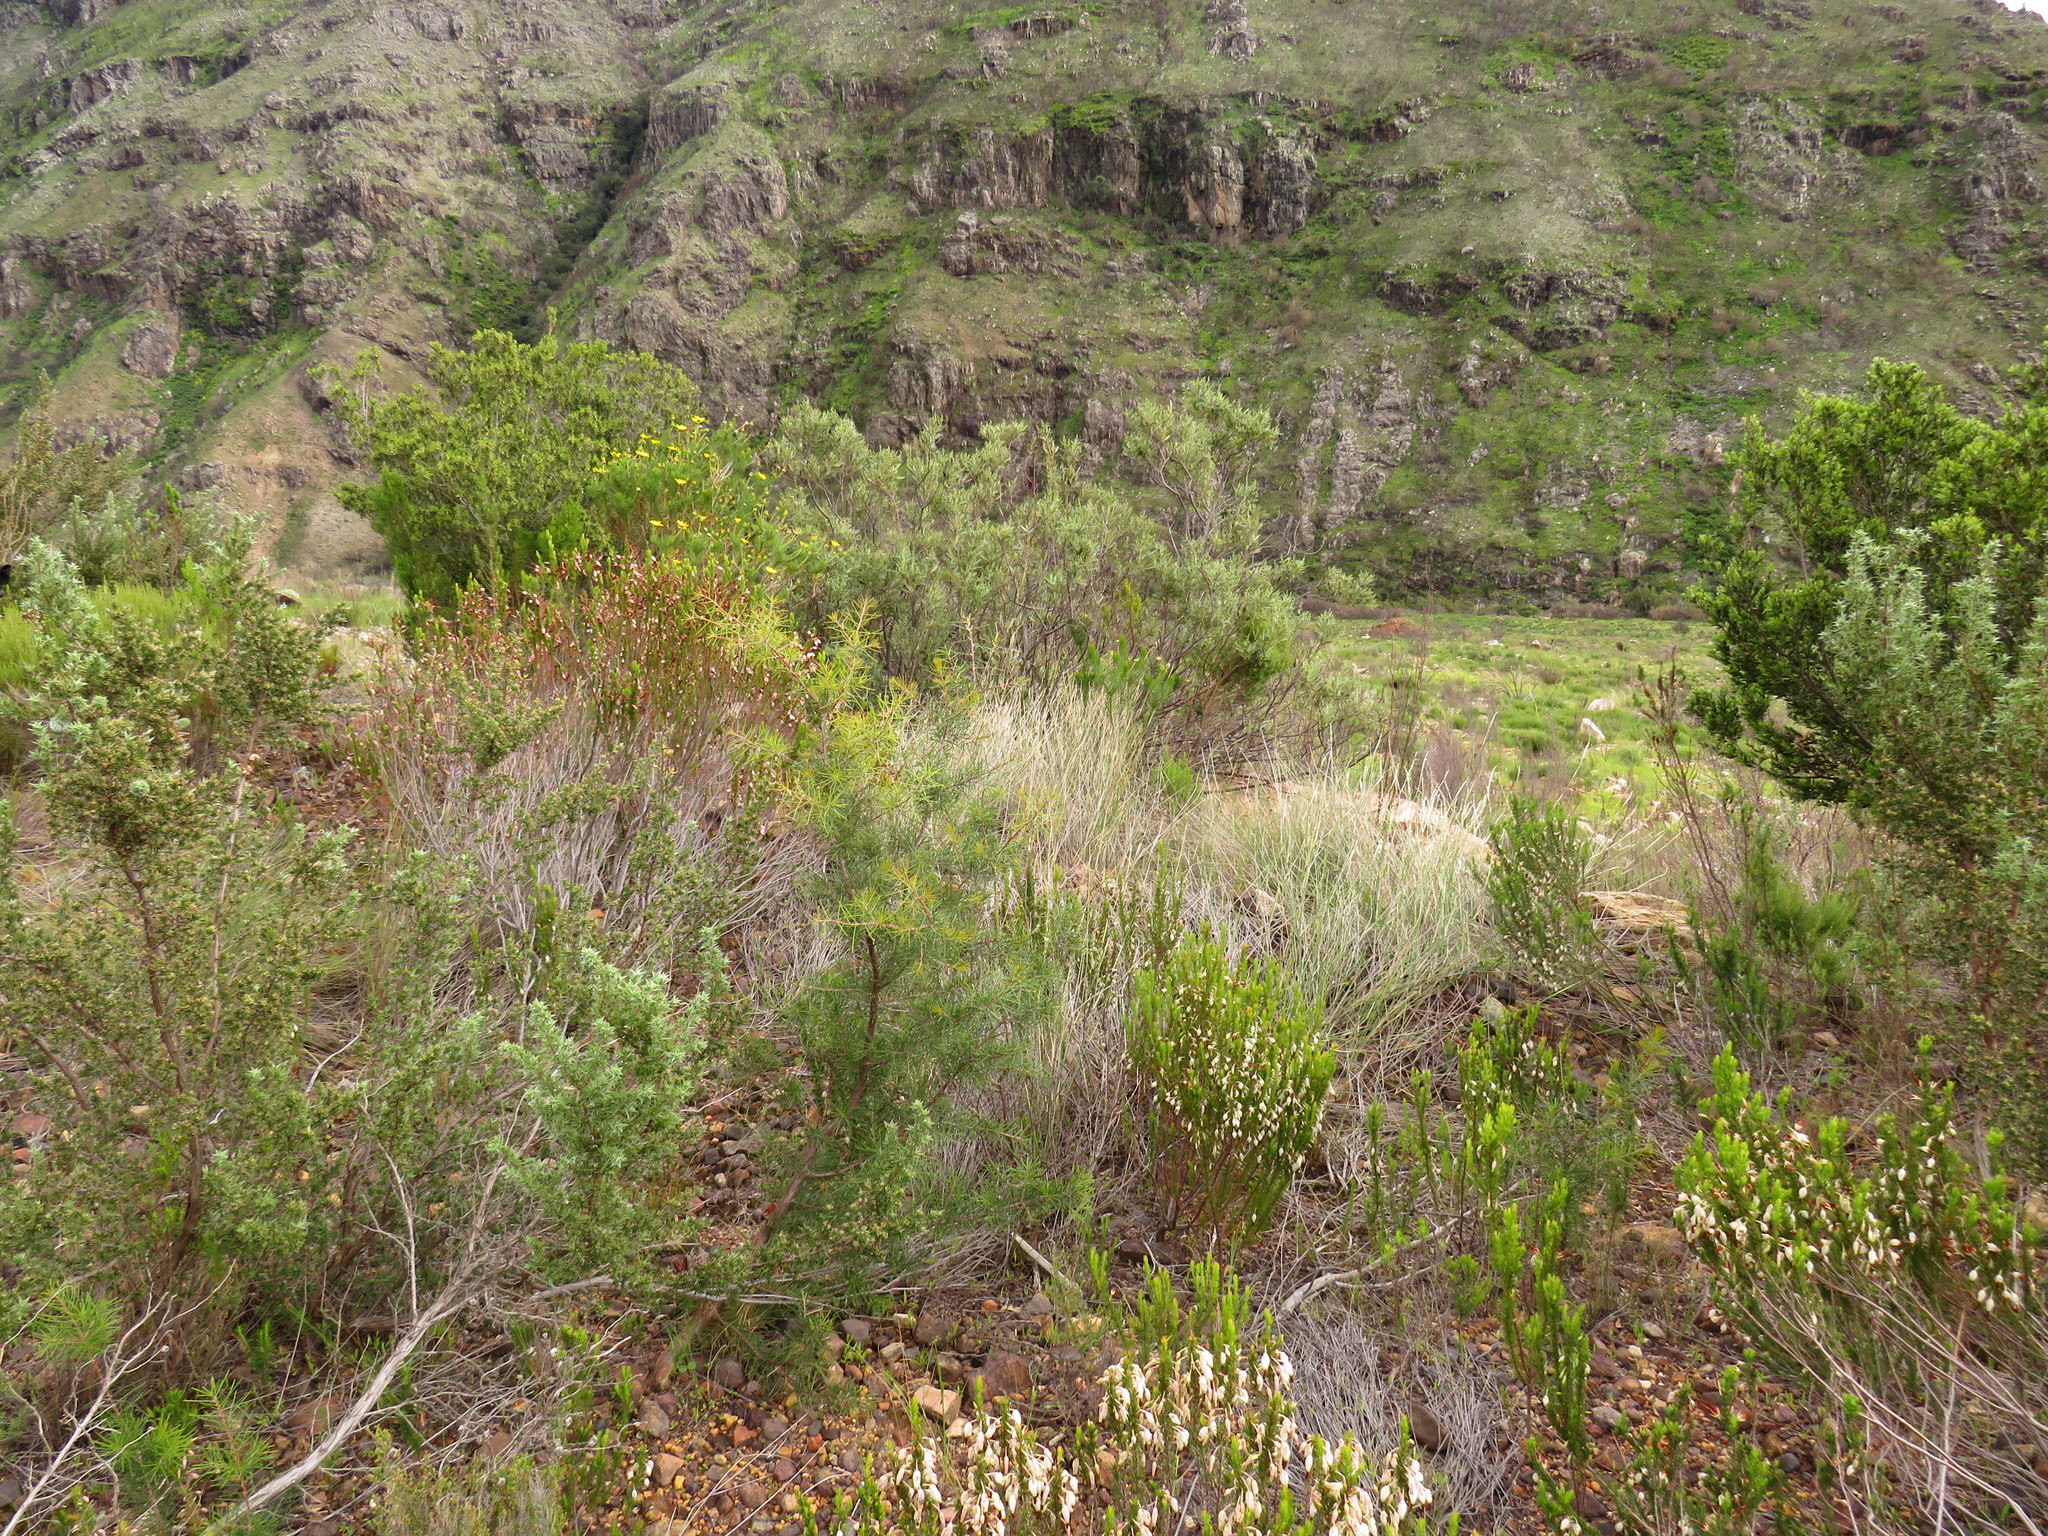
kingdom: Plantae
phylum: Tracheophyta
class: Magnoliopsida
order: Proteales
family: Proteaceae
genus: Hakea
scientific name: Hakea sericea
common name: Needle bush
